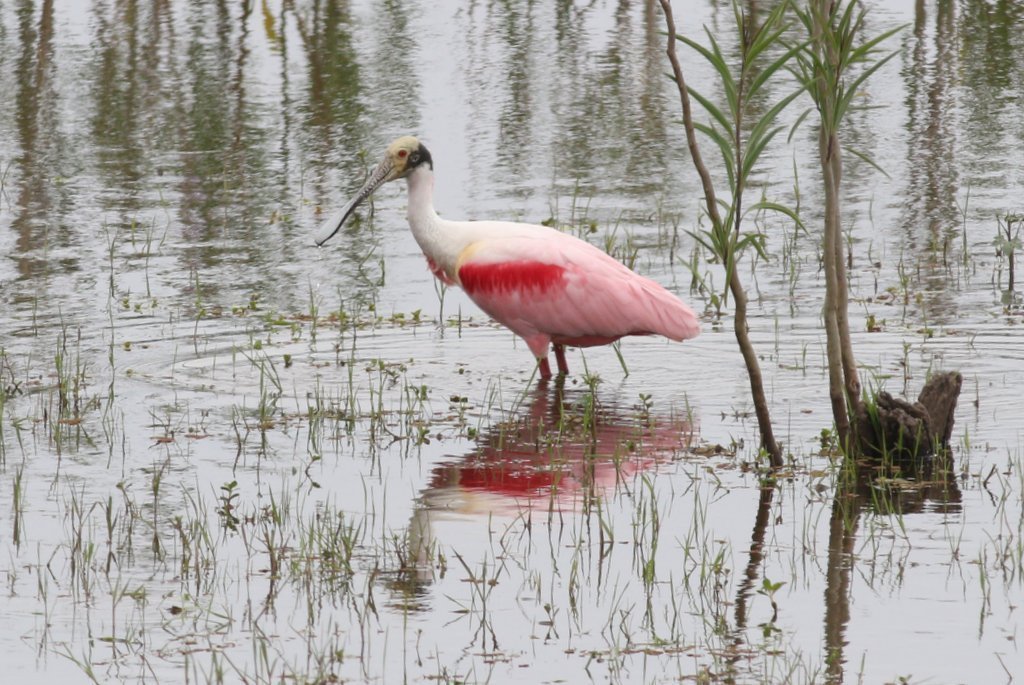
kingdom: Animalia
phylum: Chordata
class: Aves
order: Pelecaniformes
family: Threskiornithidae
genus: Platalea
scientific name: Platalea ajaja
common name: Roseate spoonbill
